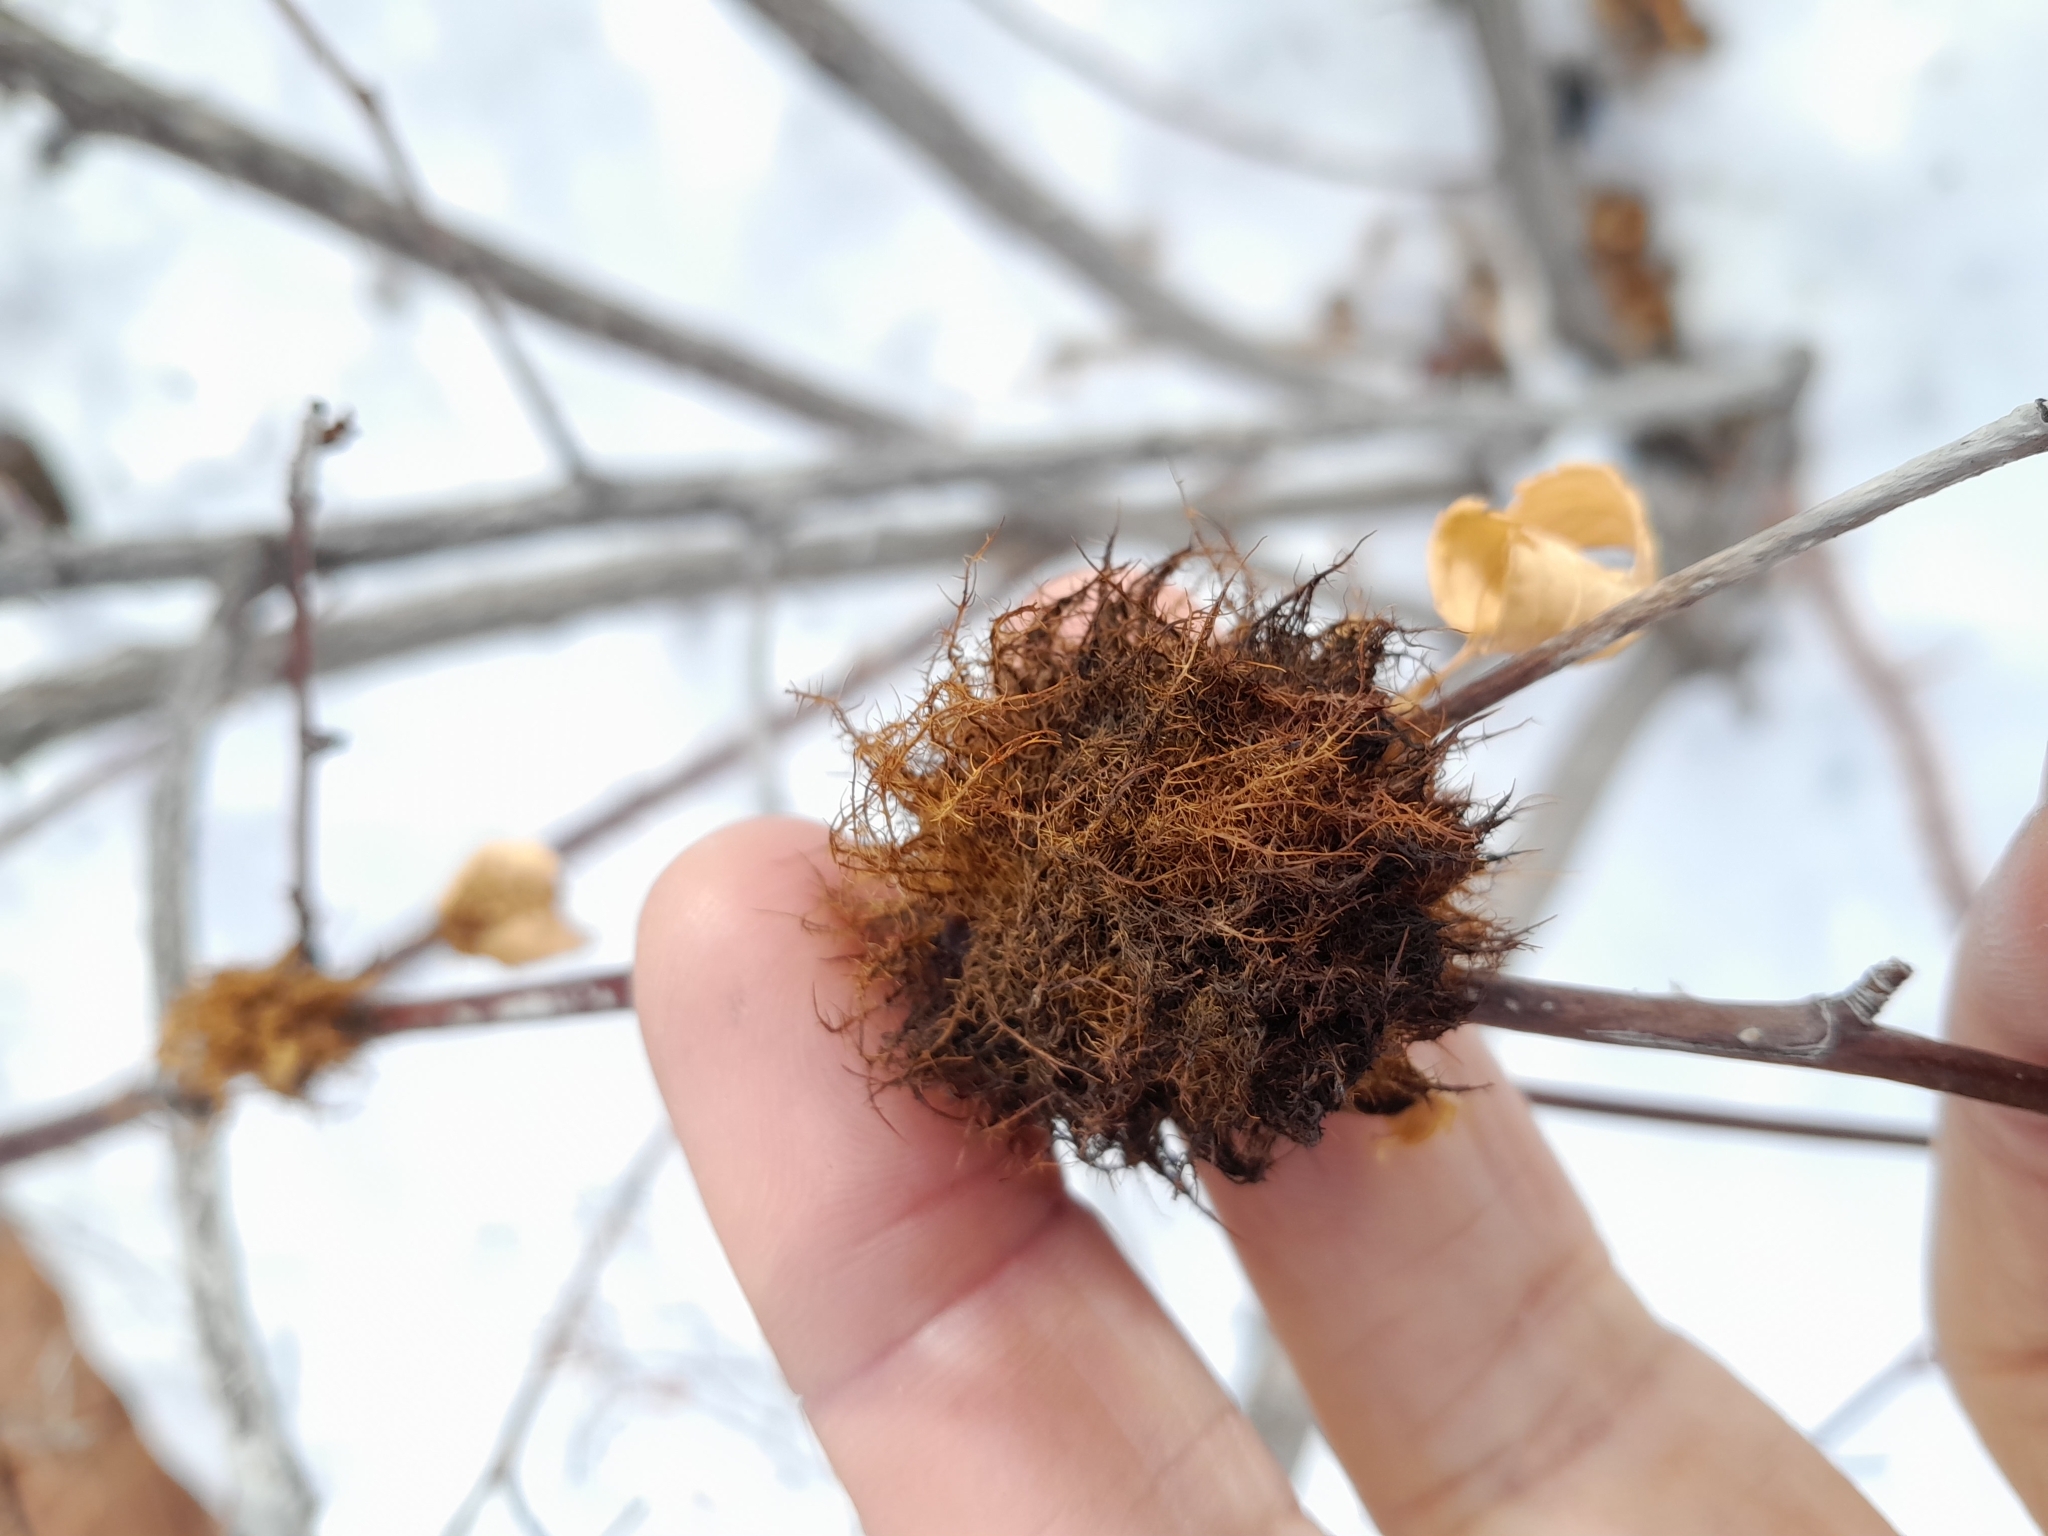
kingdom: Animalia
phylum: Arthropoda
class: Insecta
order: Hymenoptera
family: Cynipidae
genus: Diplolepis
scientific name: Diplolepis rosae
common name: Bedeguar gall
